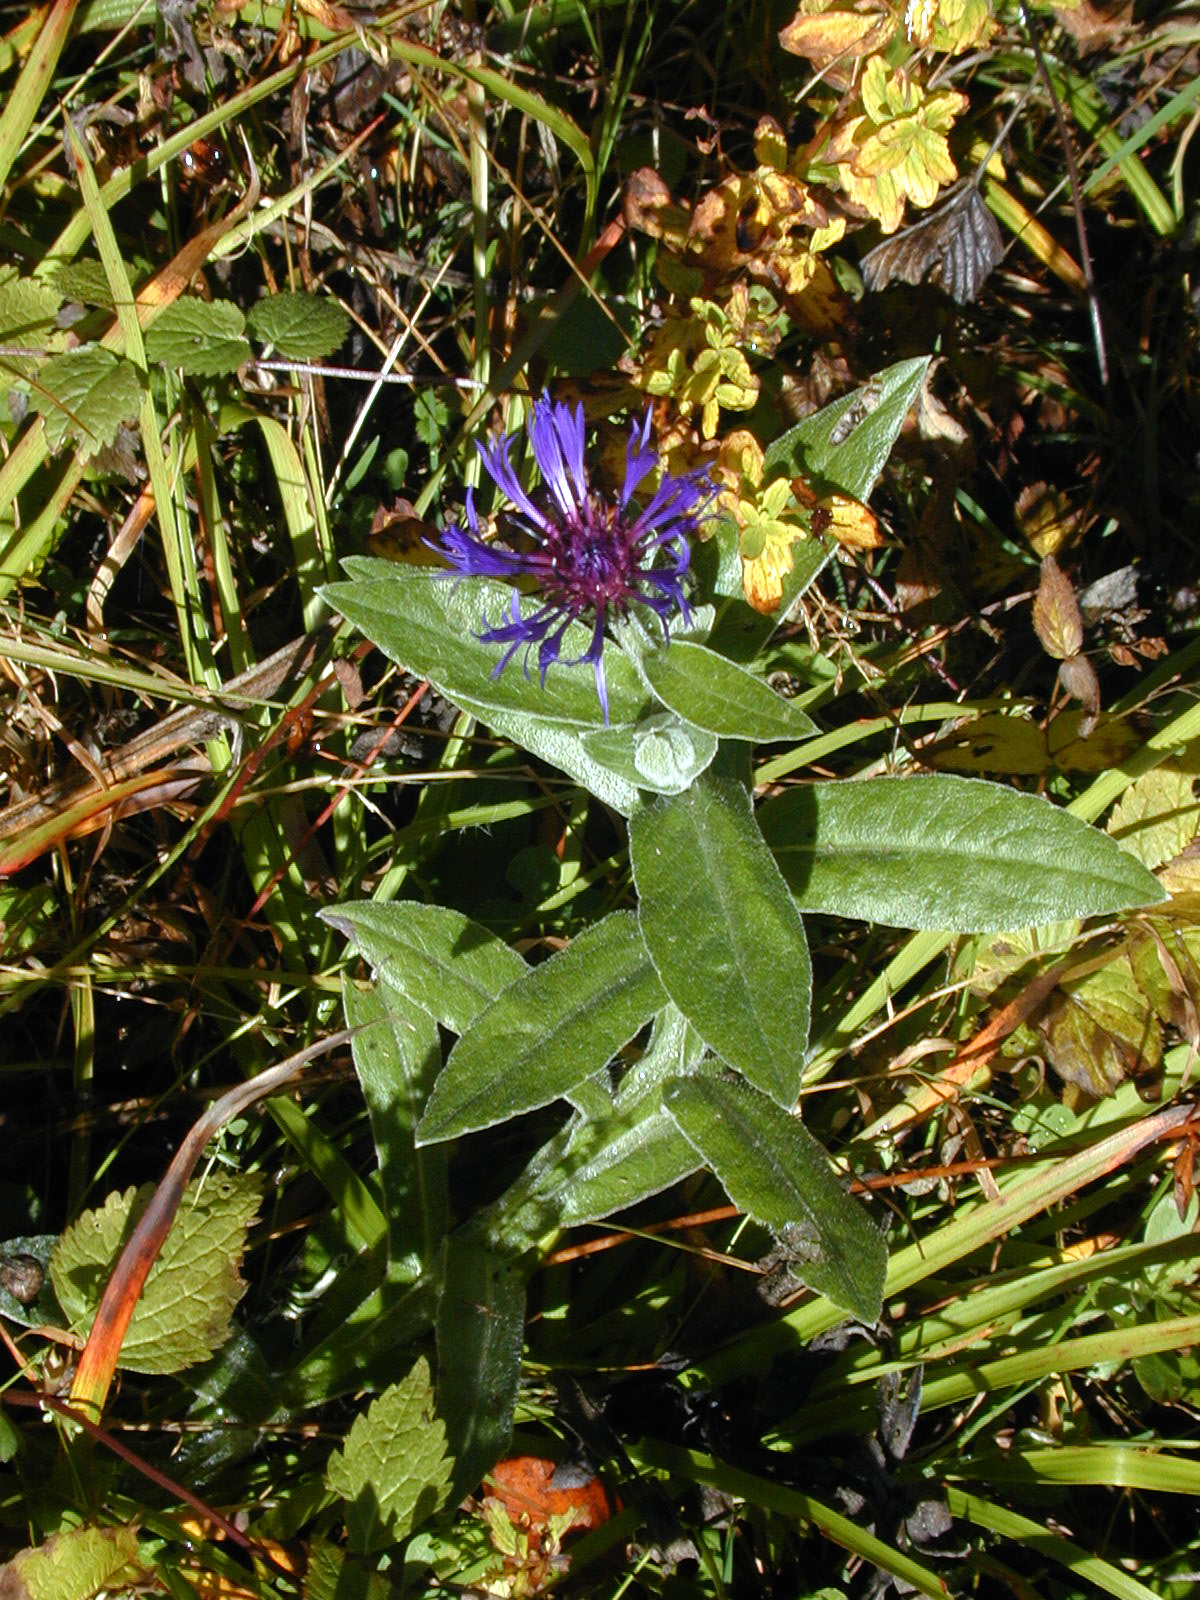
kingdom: Plantae
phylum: Tracheophyta
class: Magnoliopsida
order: Asterales
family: Asteraceae
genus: Centaurea
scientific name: Centaurea montana
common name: Perennial cornflower
